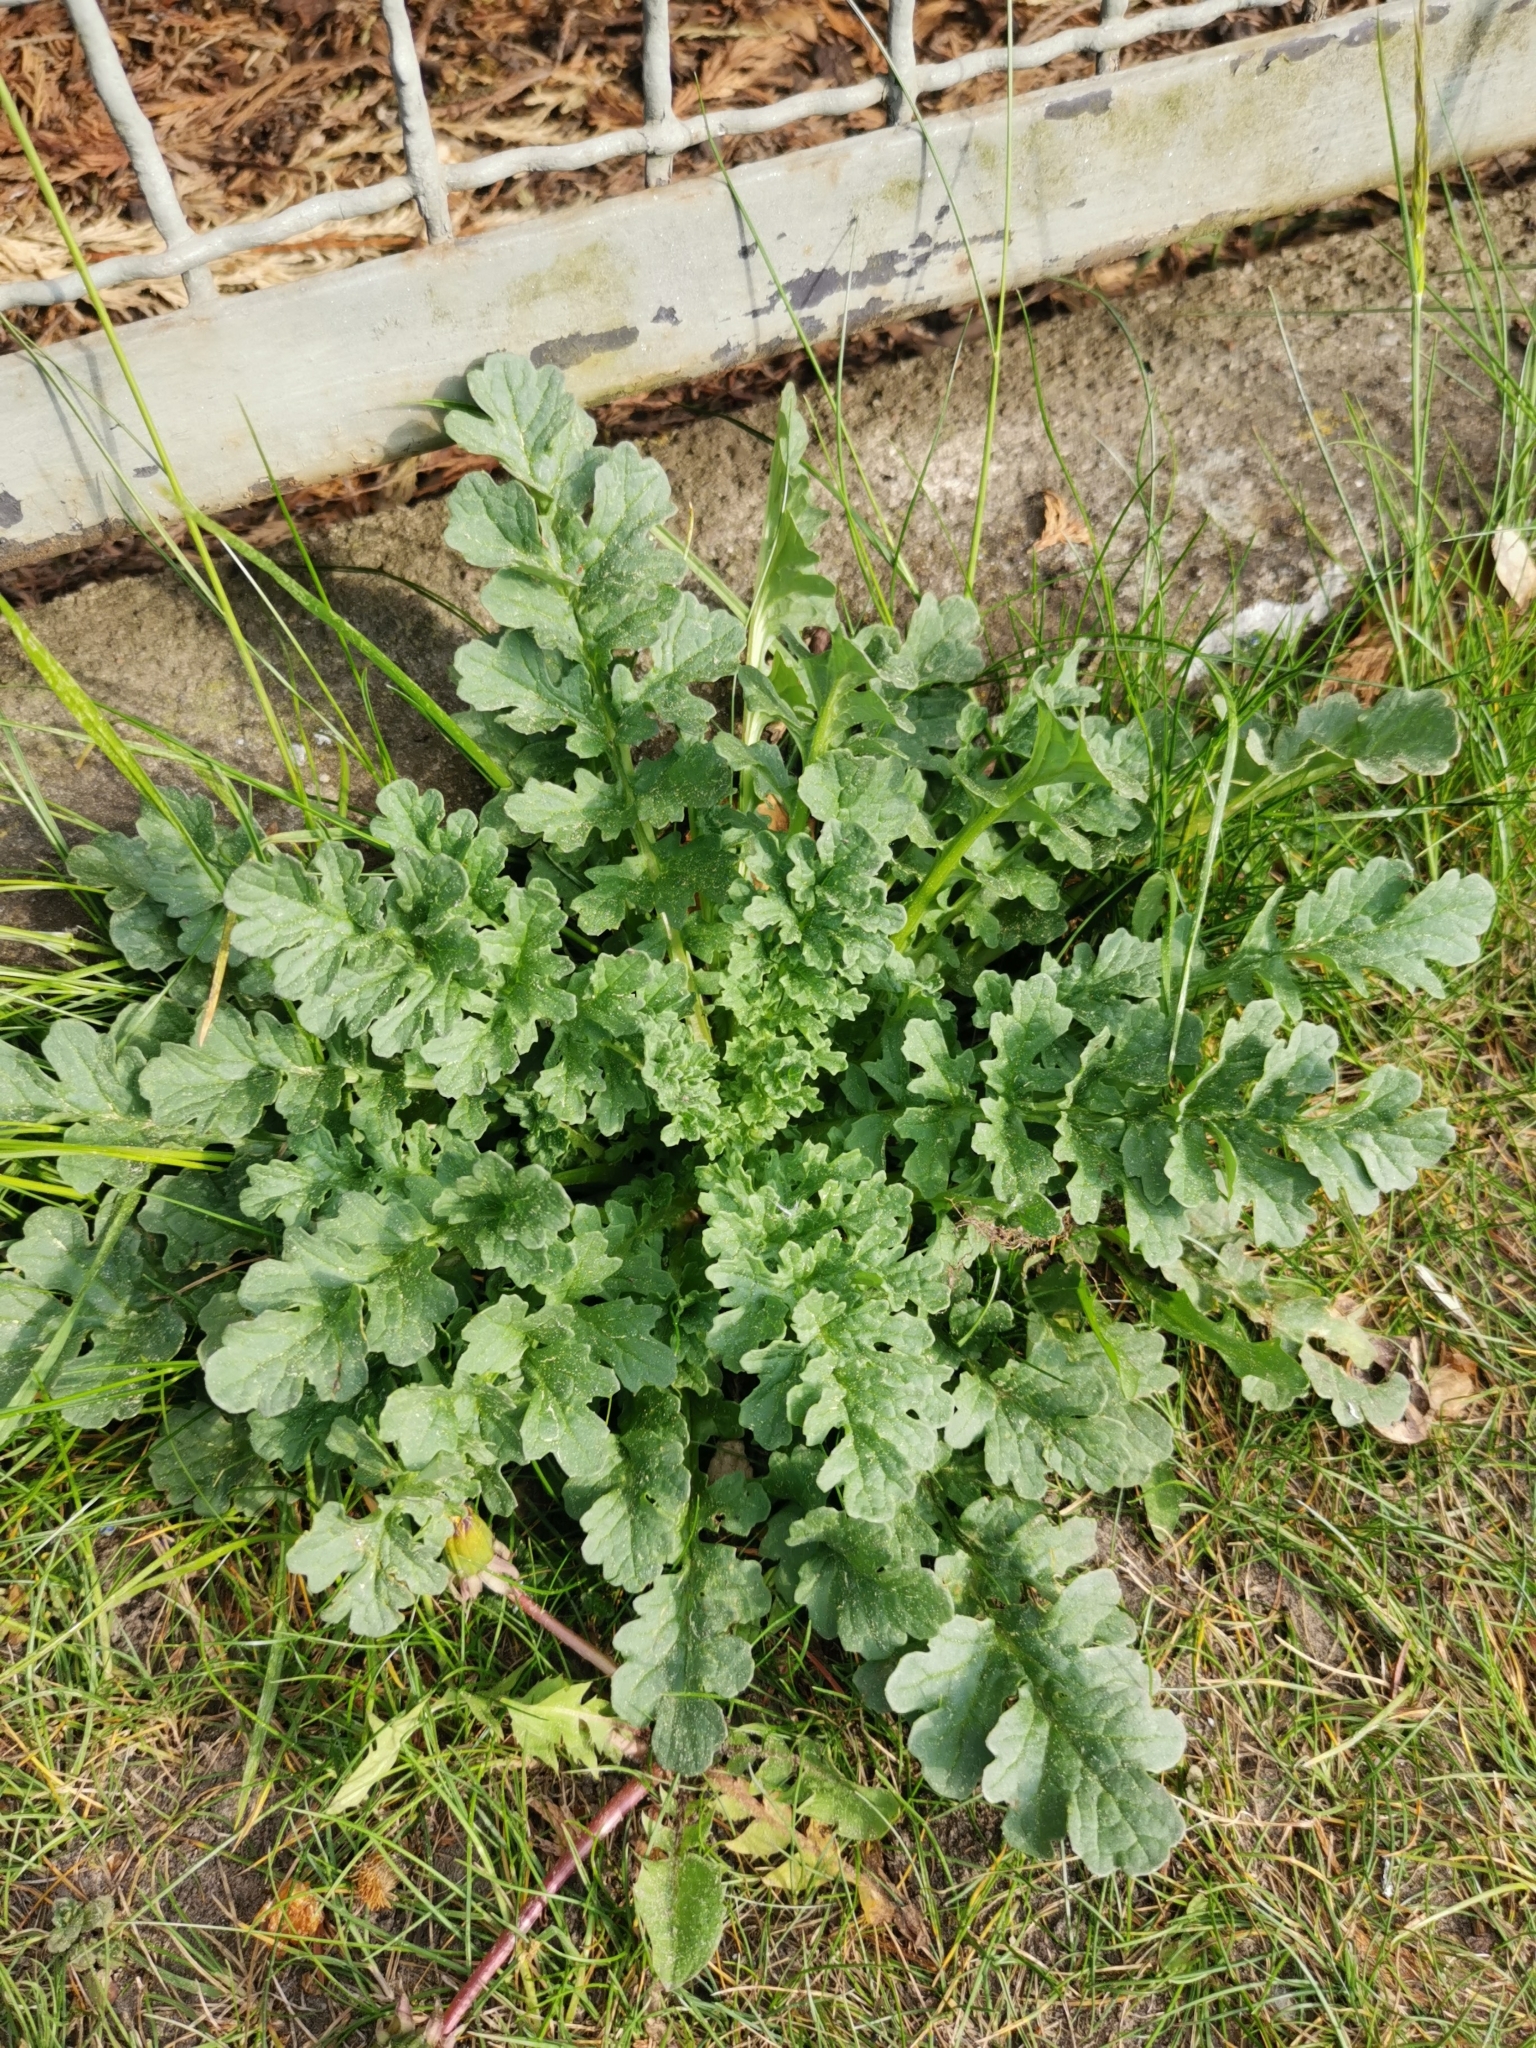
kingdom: Plantae
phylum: Tracheophyta
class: Magnoliopsida
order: Asterales
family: Asteraceae
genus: Jacobaea
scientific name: Jacobaea vulgaris
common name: Stinking willie
